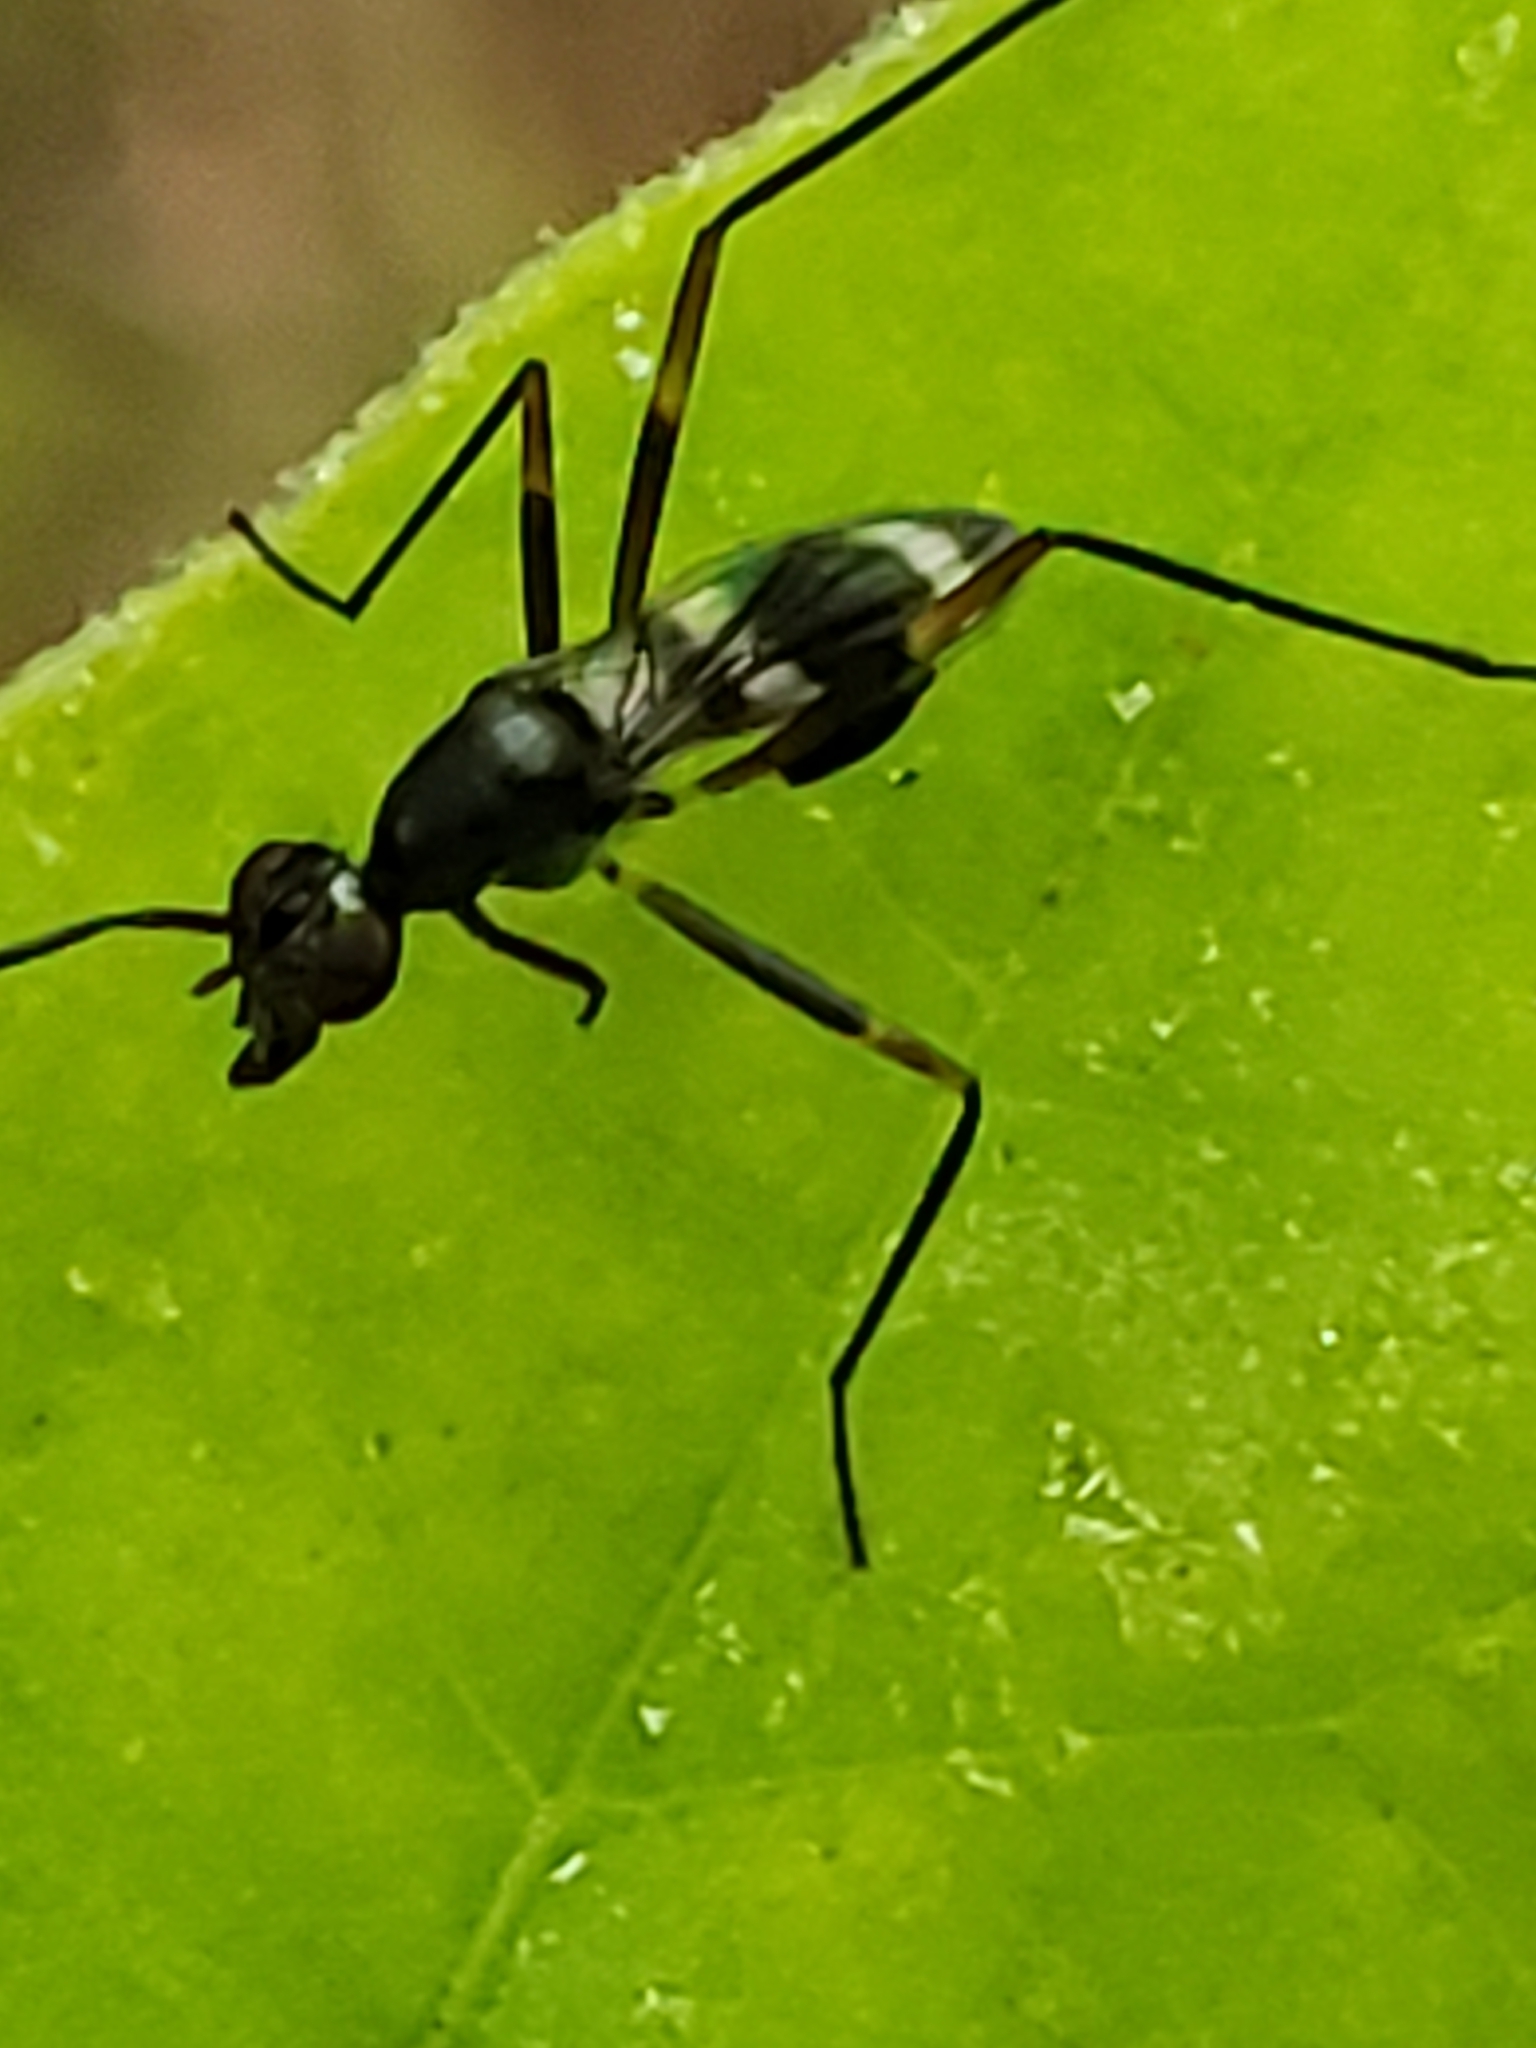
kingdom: Animalia
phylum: Arthropoda
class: Insecta
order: Diptera
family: Micropezidae
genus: Taeniaptera
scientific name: Taeniaptera trivittata
